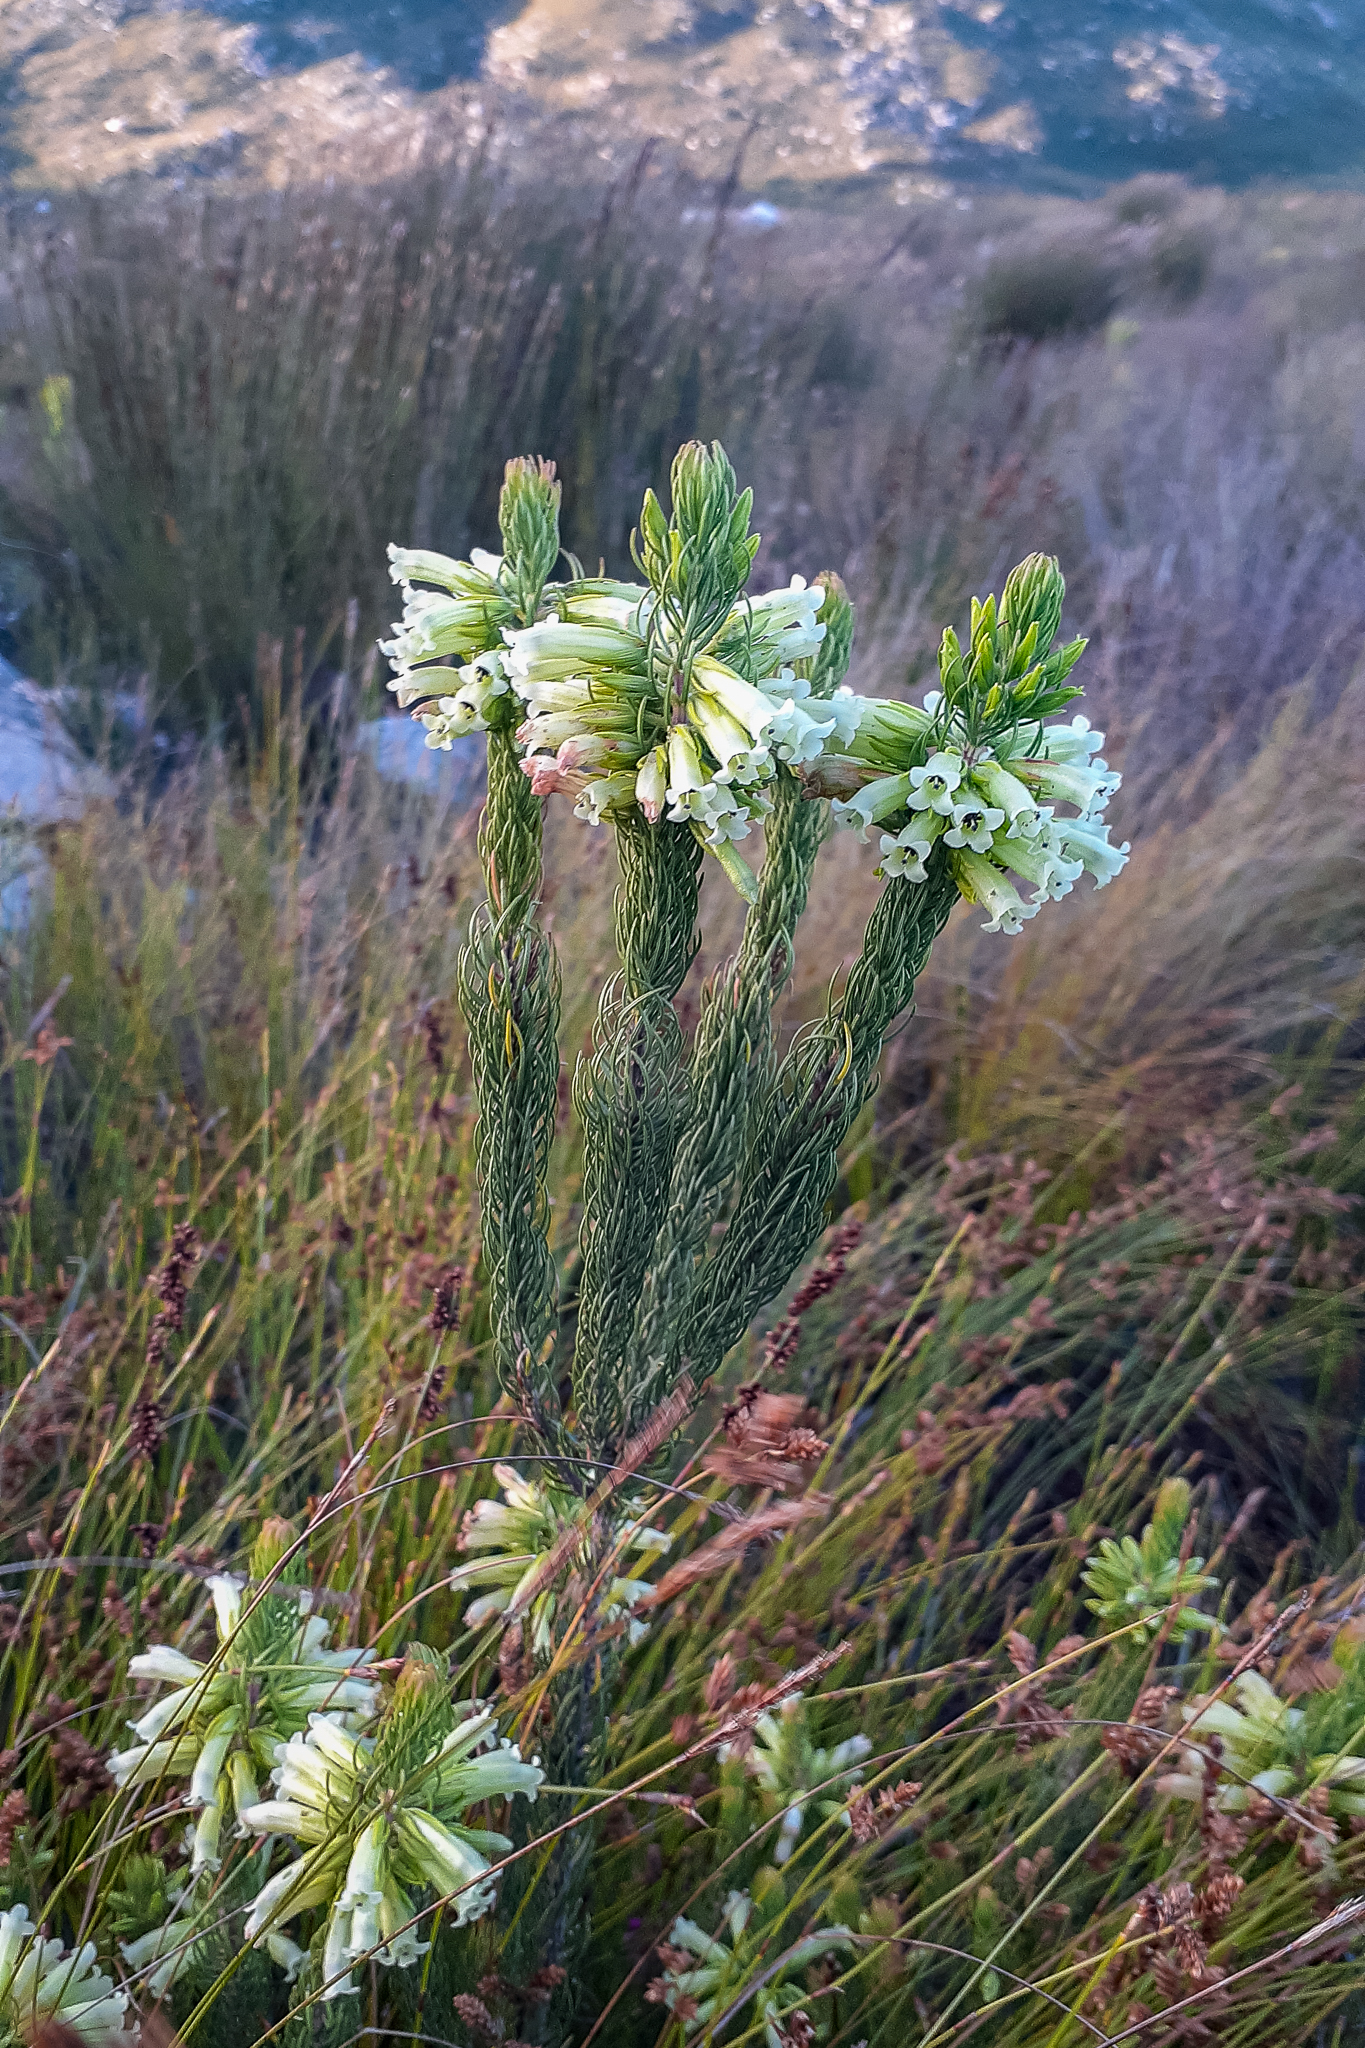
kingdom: Plantae
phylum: Tracheophyta
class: Magnoliopsida
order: Ericales
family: Ericaceae
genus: Erica
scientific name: Erica viscaria
